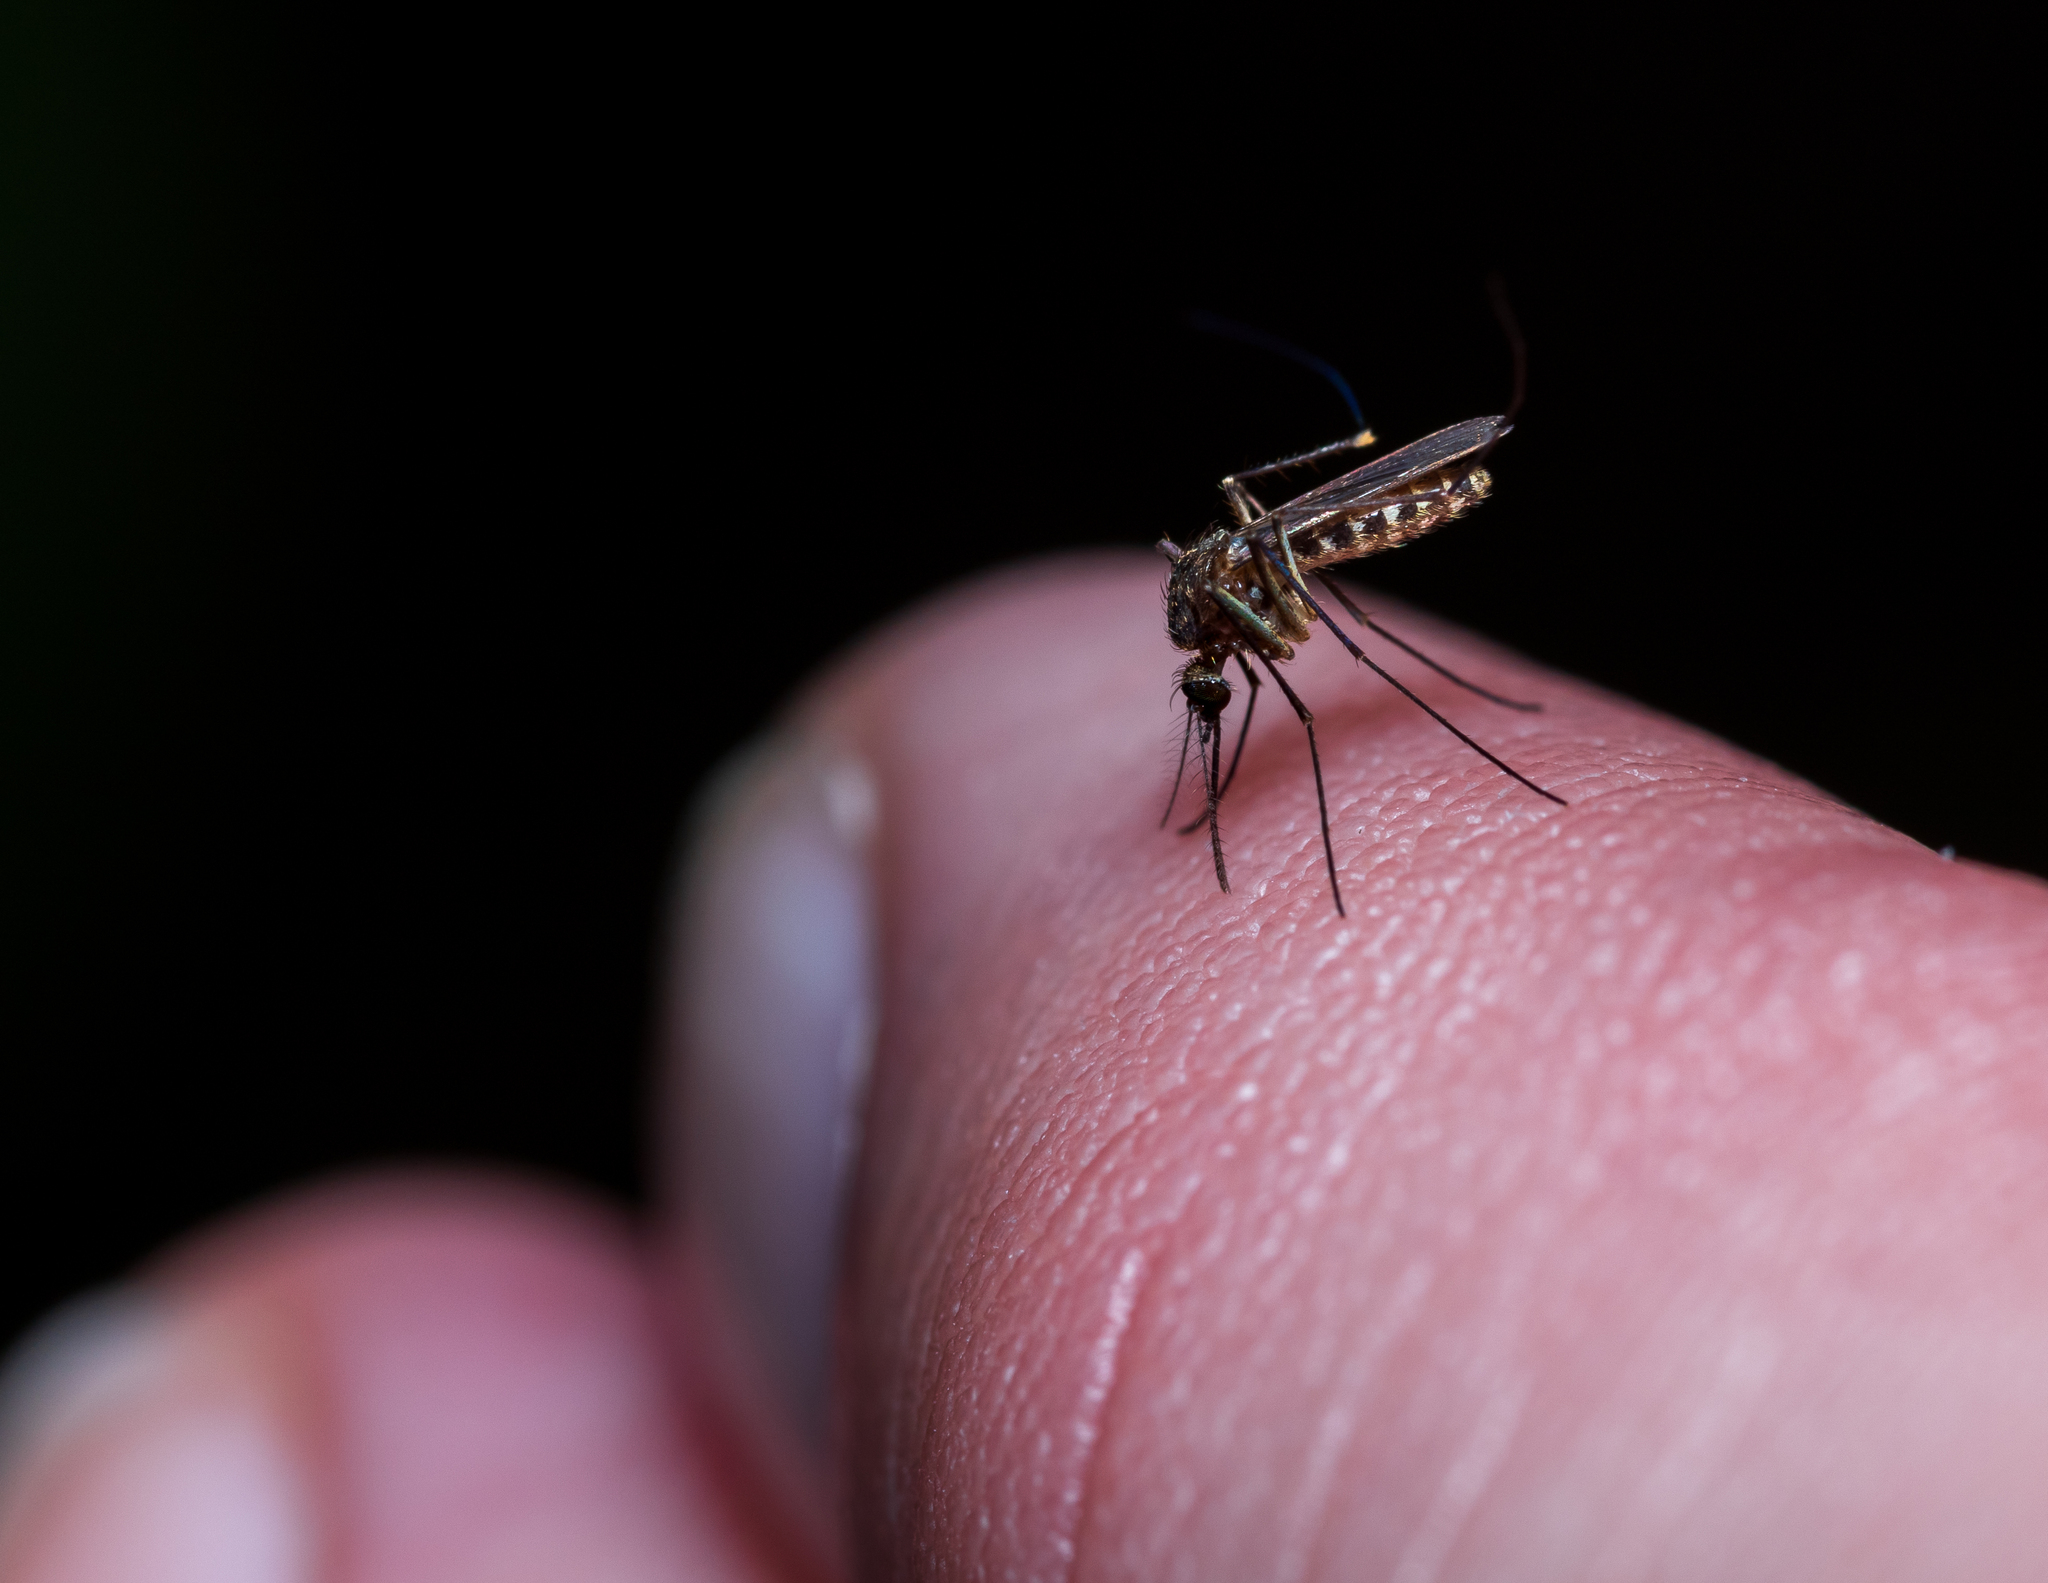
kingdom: Animalia
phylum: Arthropoda
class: Insecta
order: Diptera
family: Culicidae
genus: Culex
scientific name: Culex erraticus
